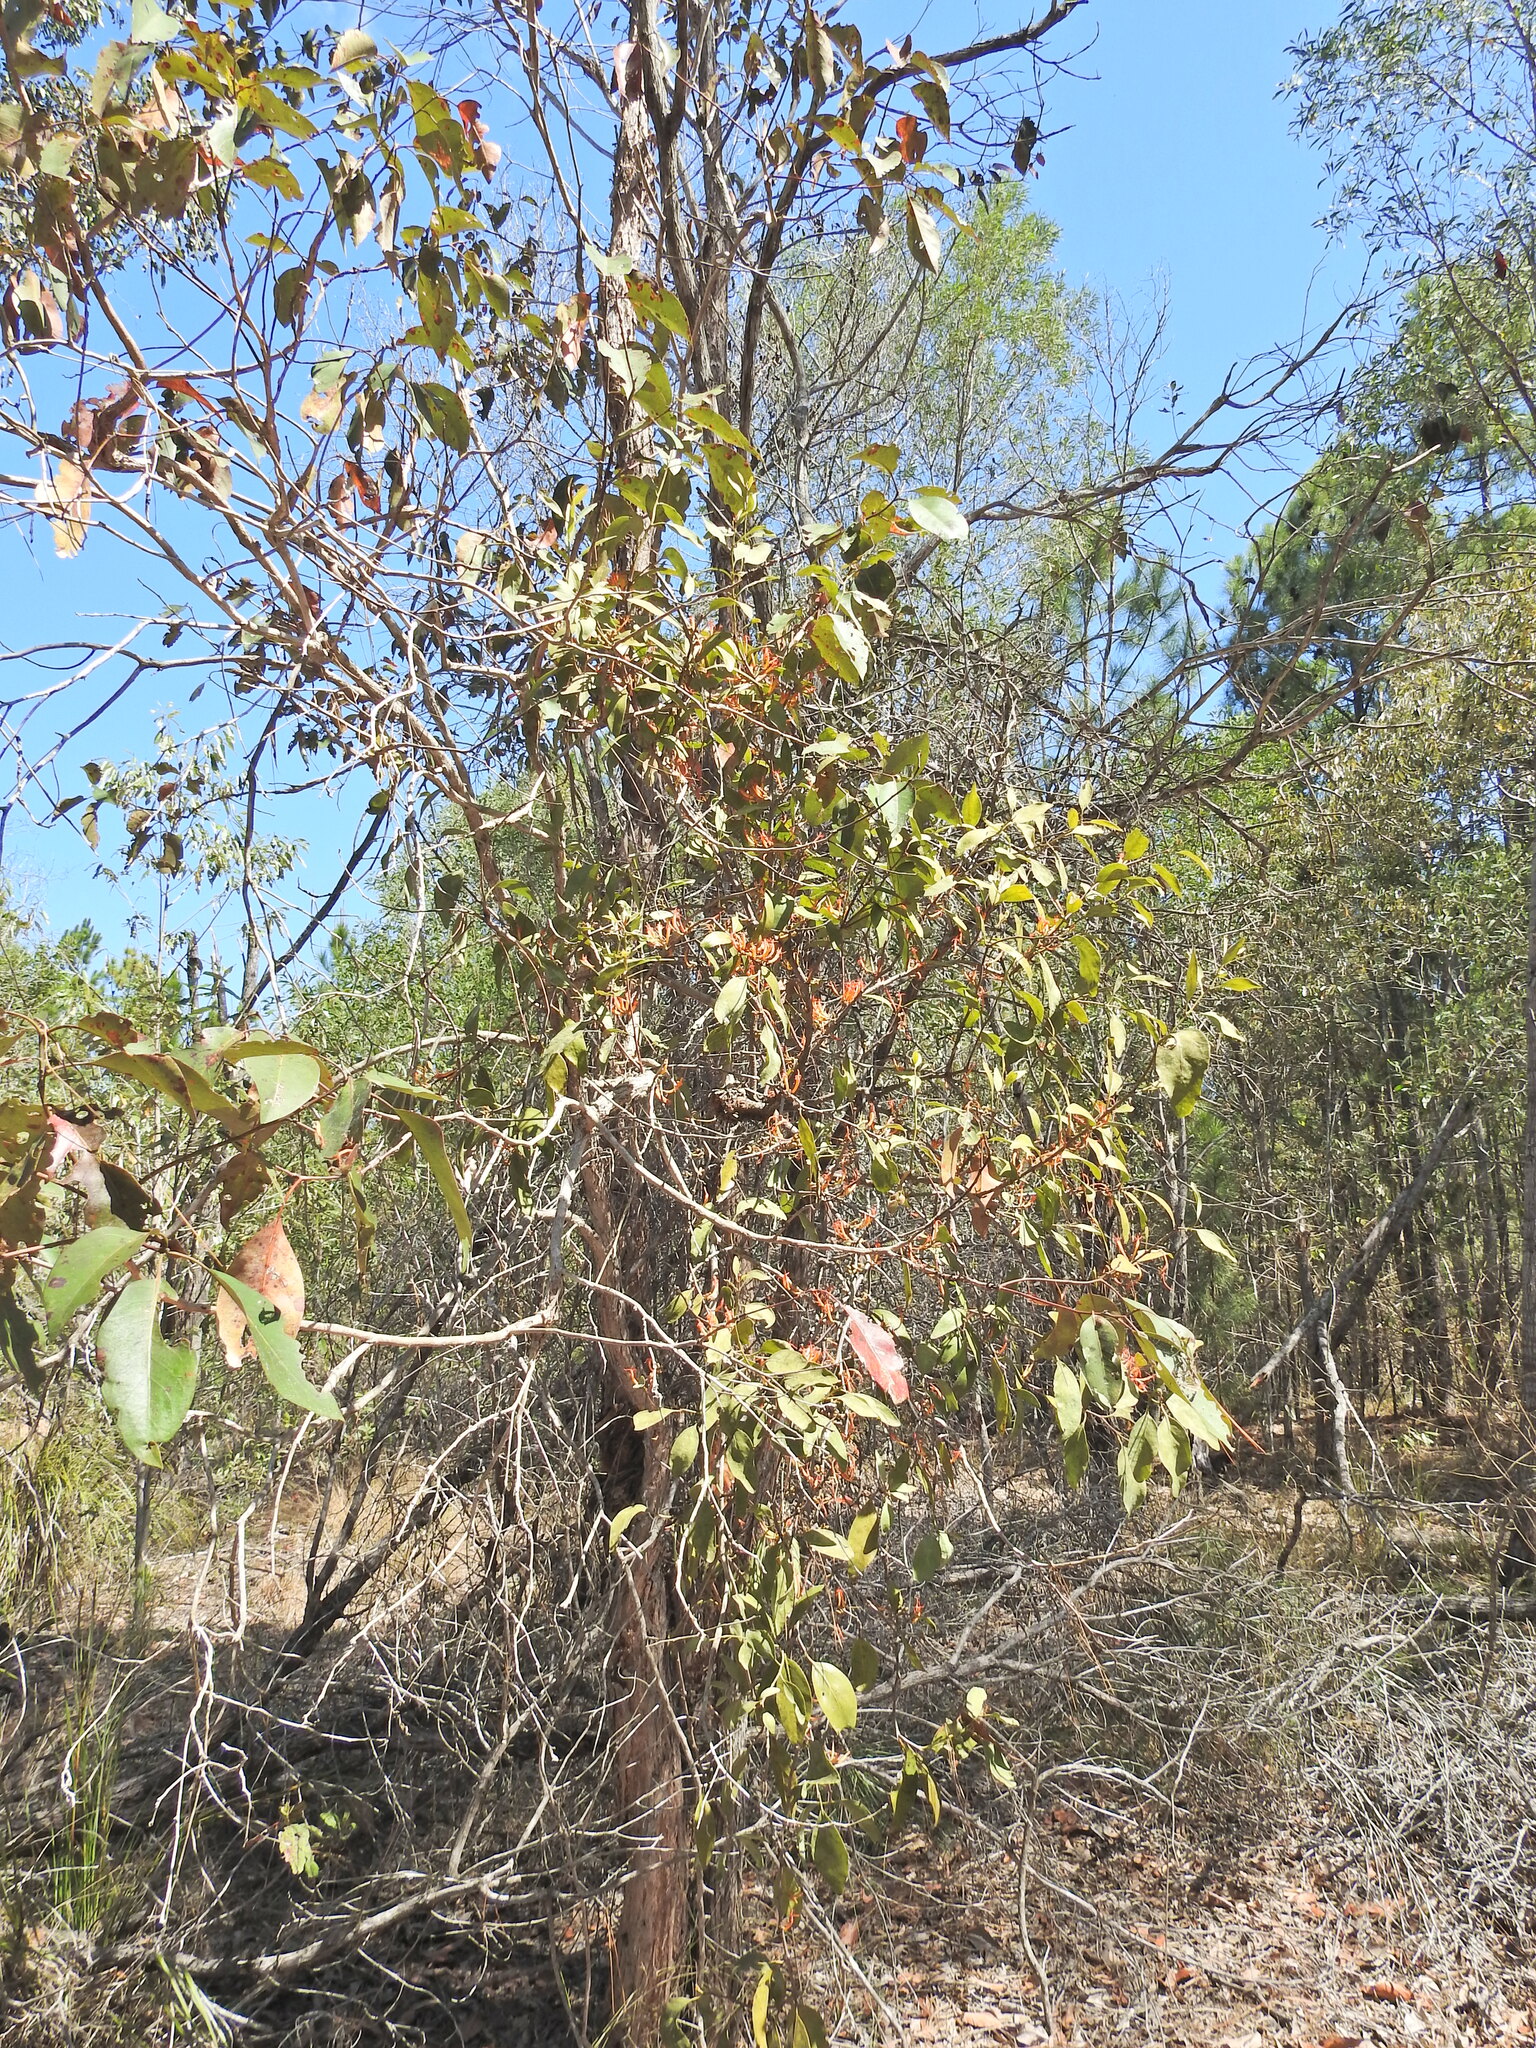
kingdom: Plantae
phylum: Tracheophyta
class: Magnoliopsida
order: Santalales
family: Loranthaceae
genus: Dendrophthoe
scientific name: Dendrophthoe vitellina
